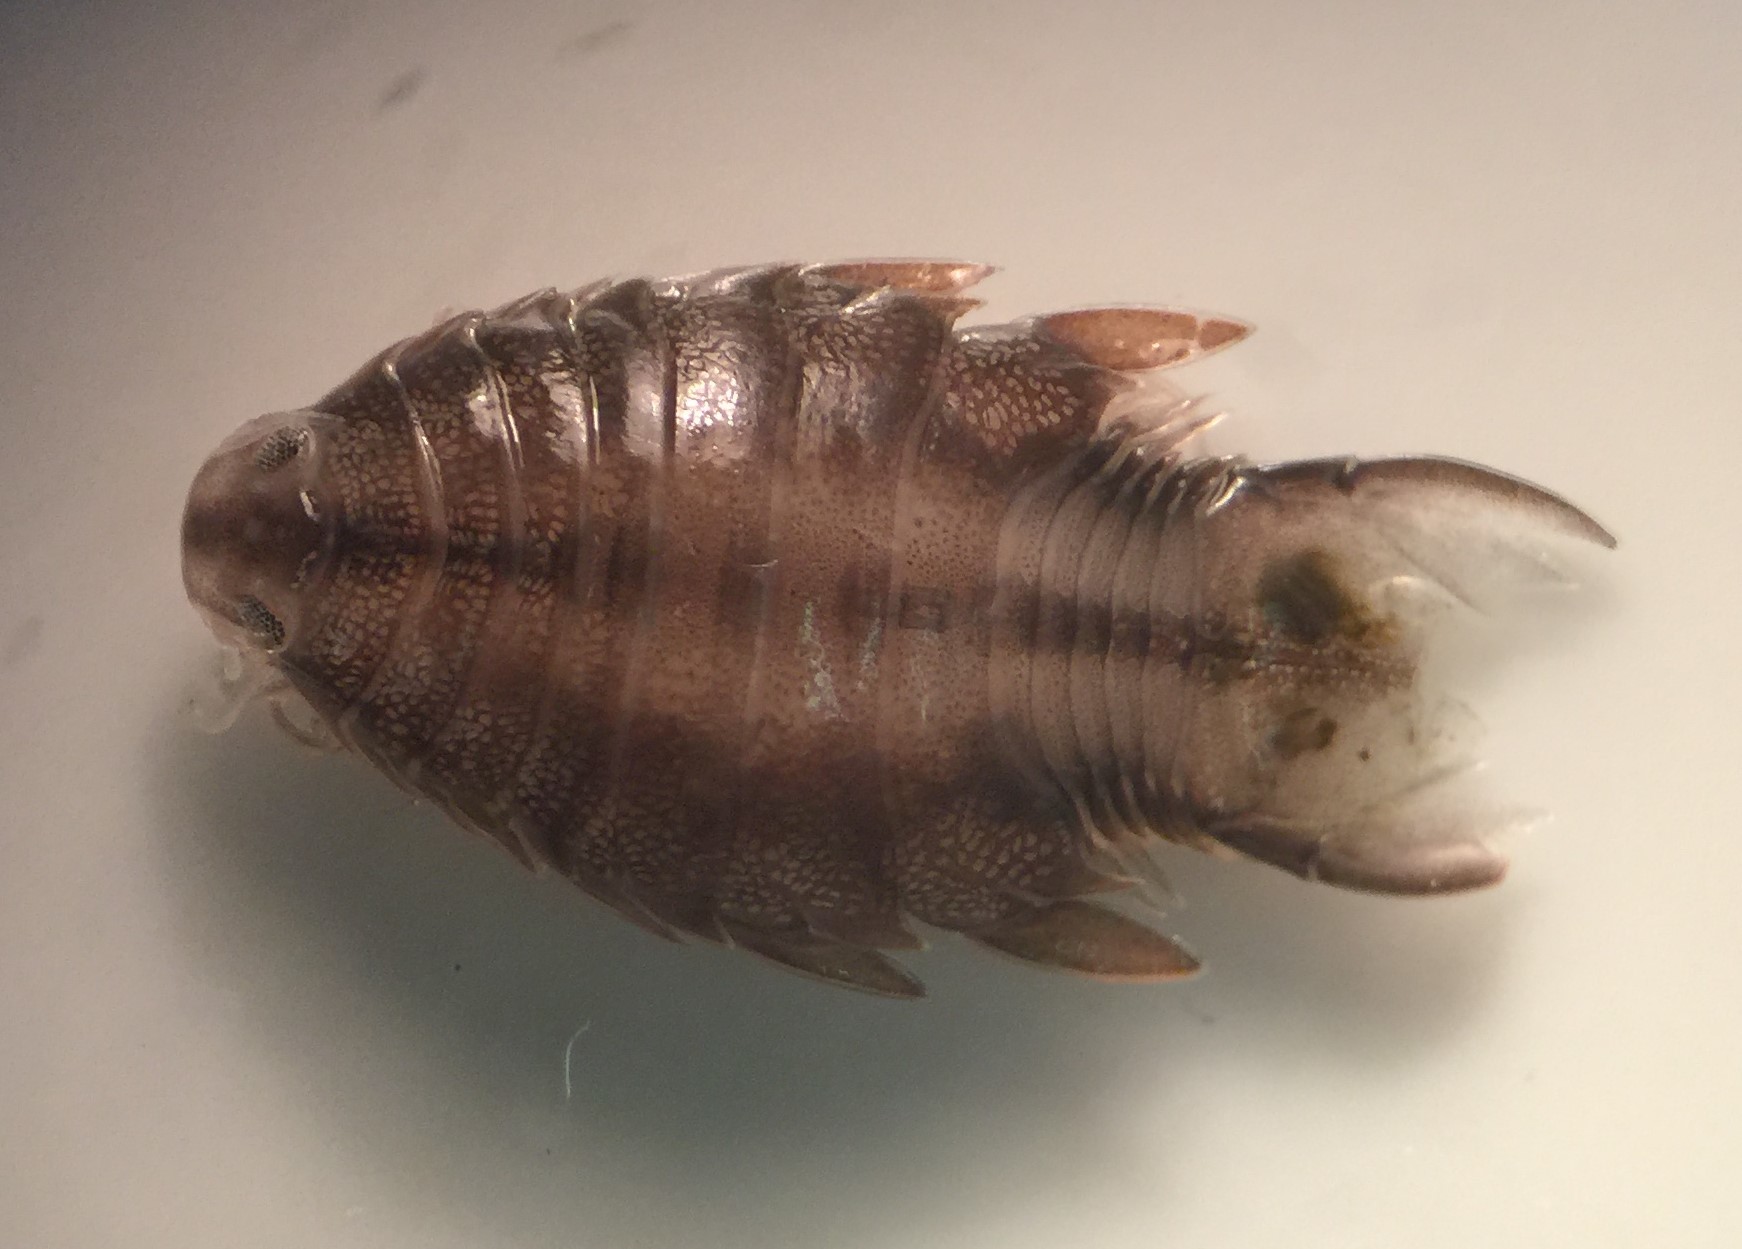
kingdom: Animalia
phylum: Arthropoda
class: Malacostraca
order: Isopoda
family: Cymothoidae
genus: Nerocila
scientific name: Nerocila monodi
